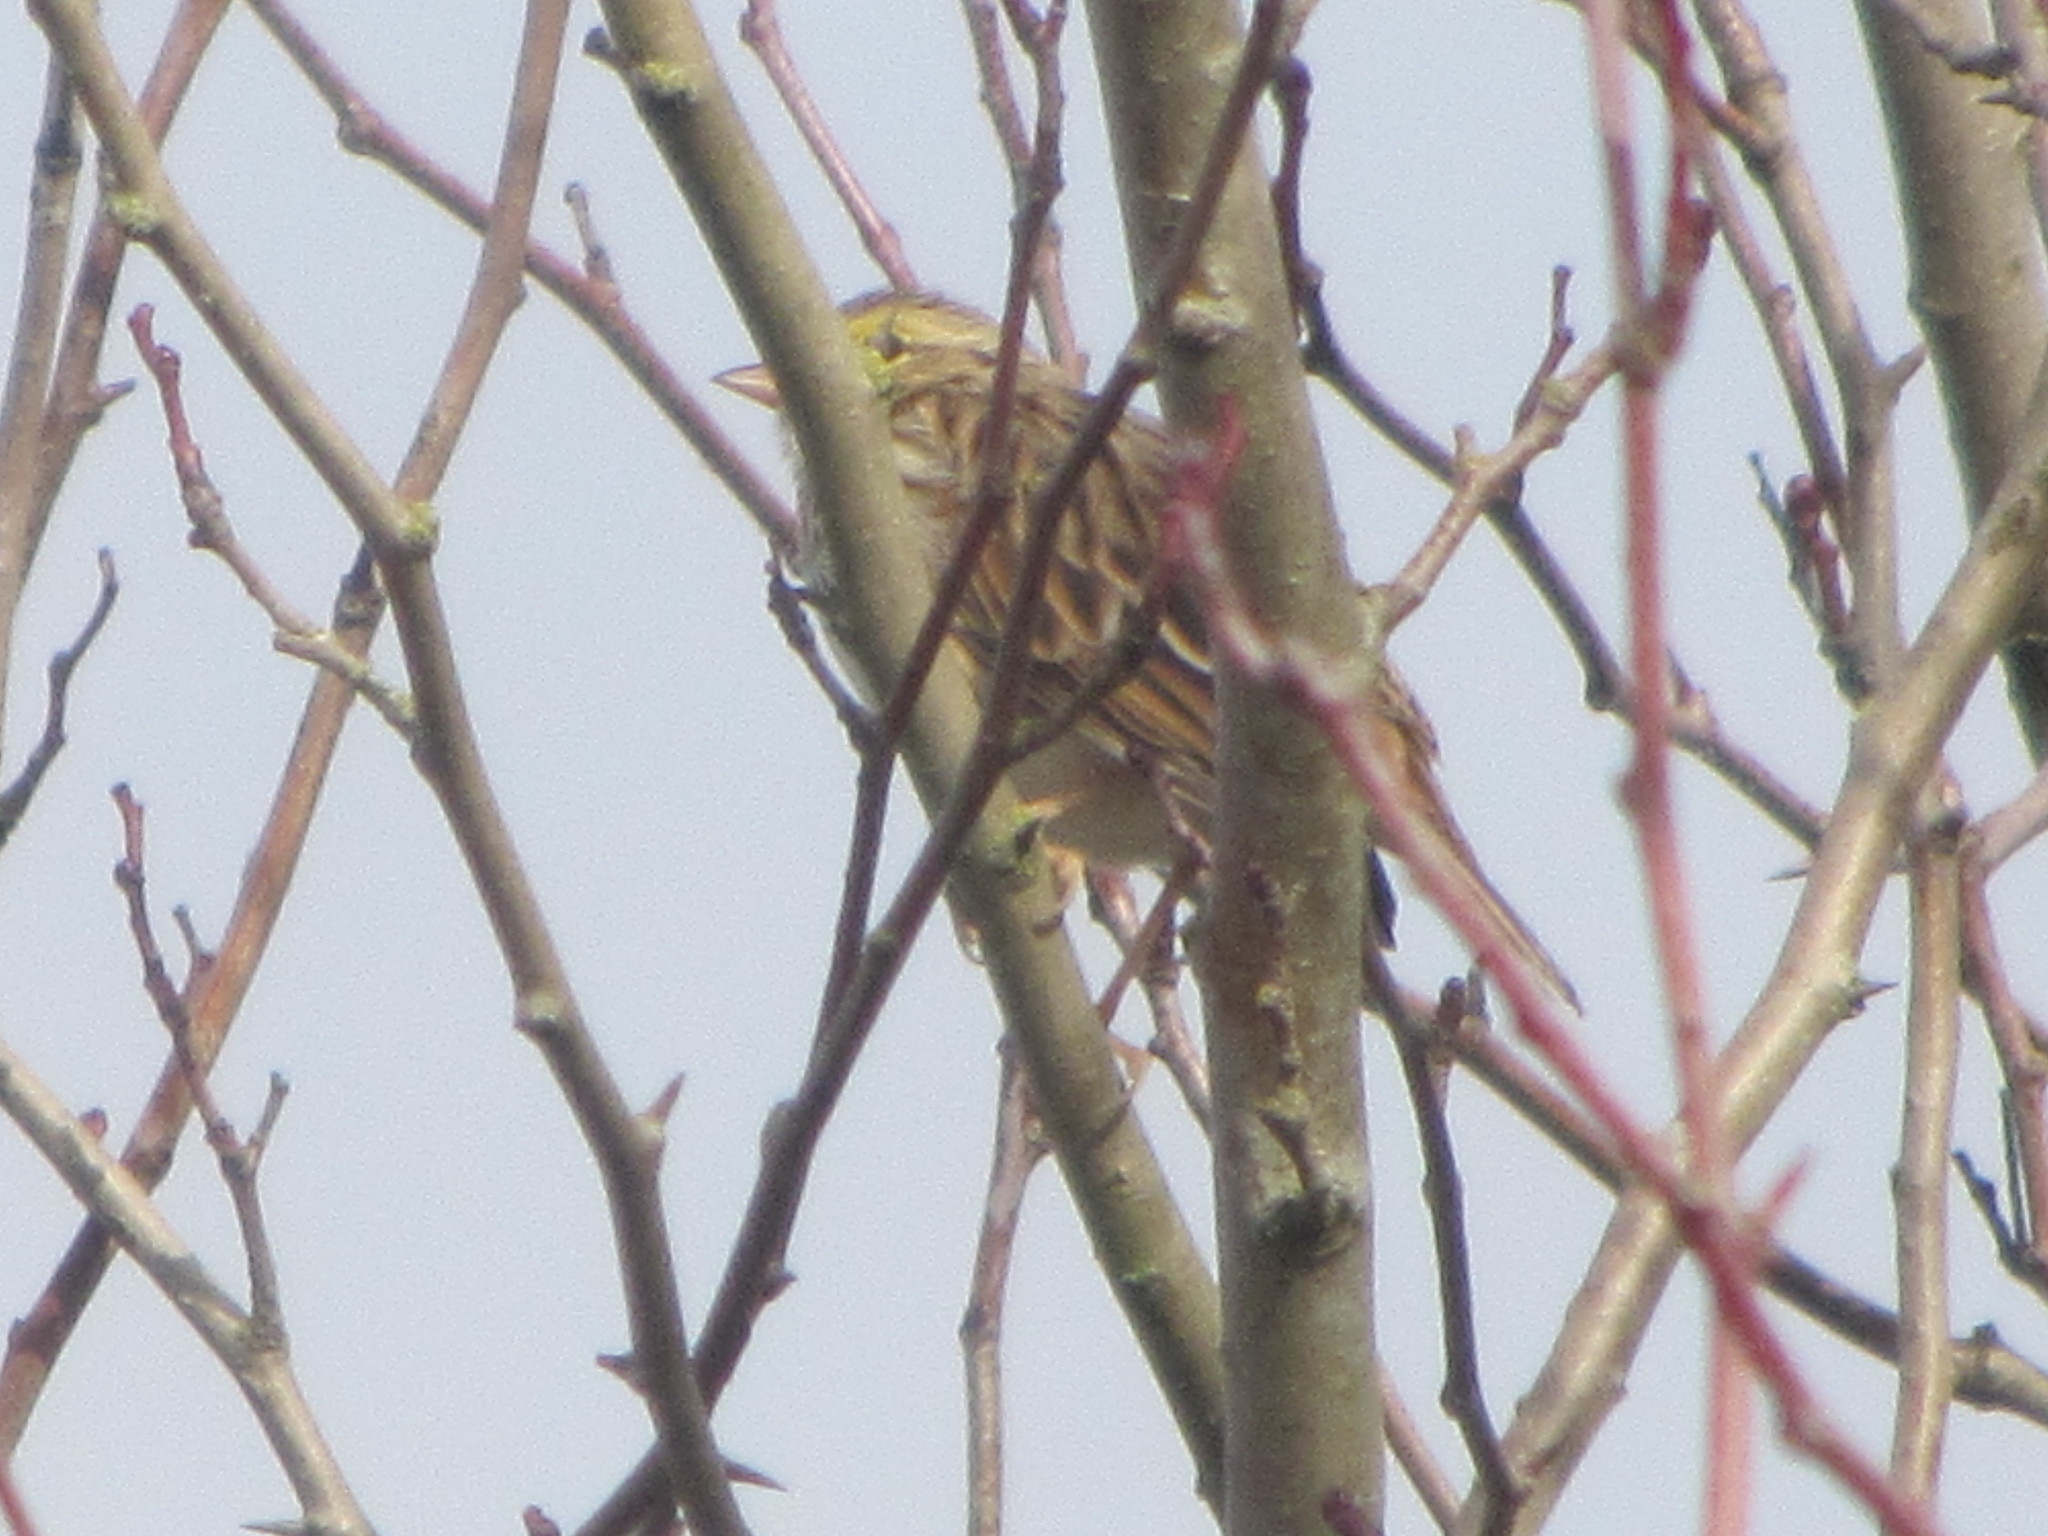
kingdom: Animalia
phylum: Chordata
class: Aves
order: Passeriformes
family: Passerellidae
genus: Passerculus
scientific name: Passerculus sandwichensis
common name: Savannah sparrow
